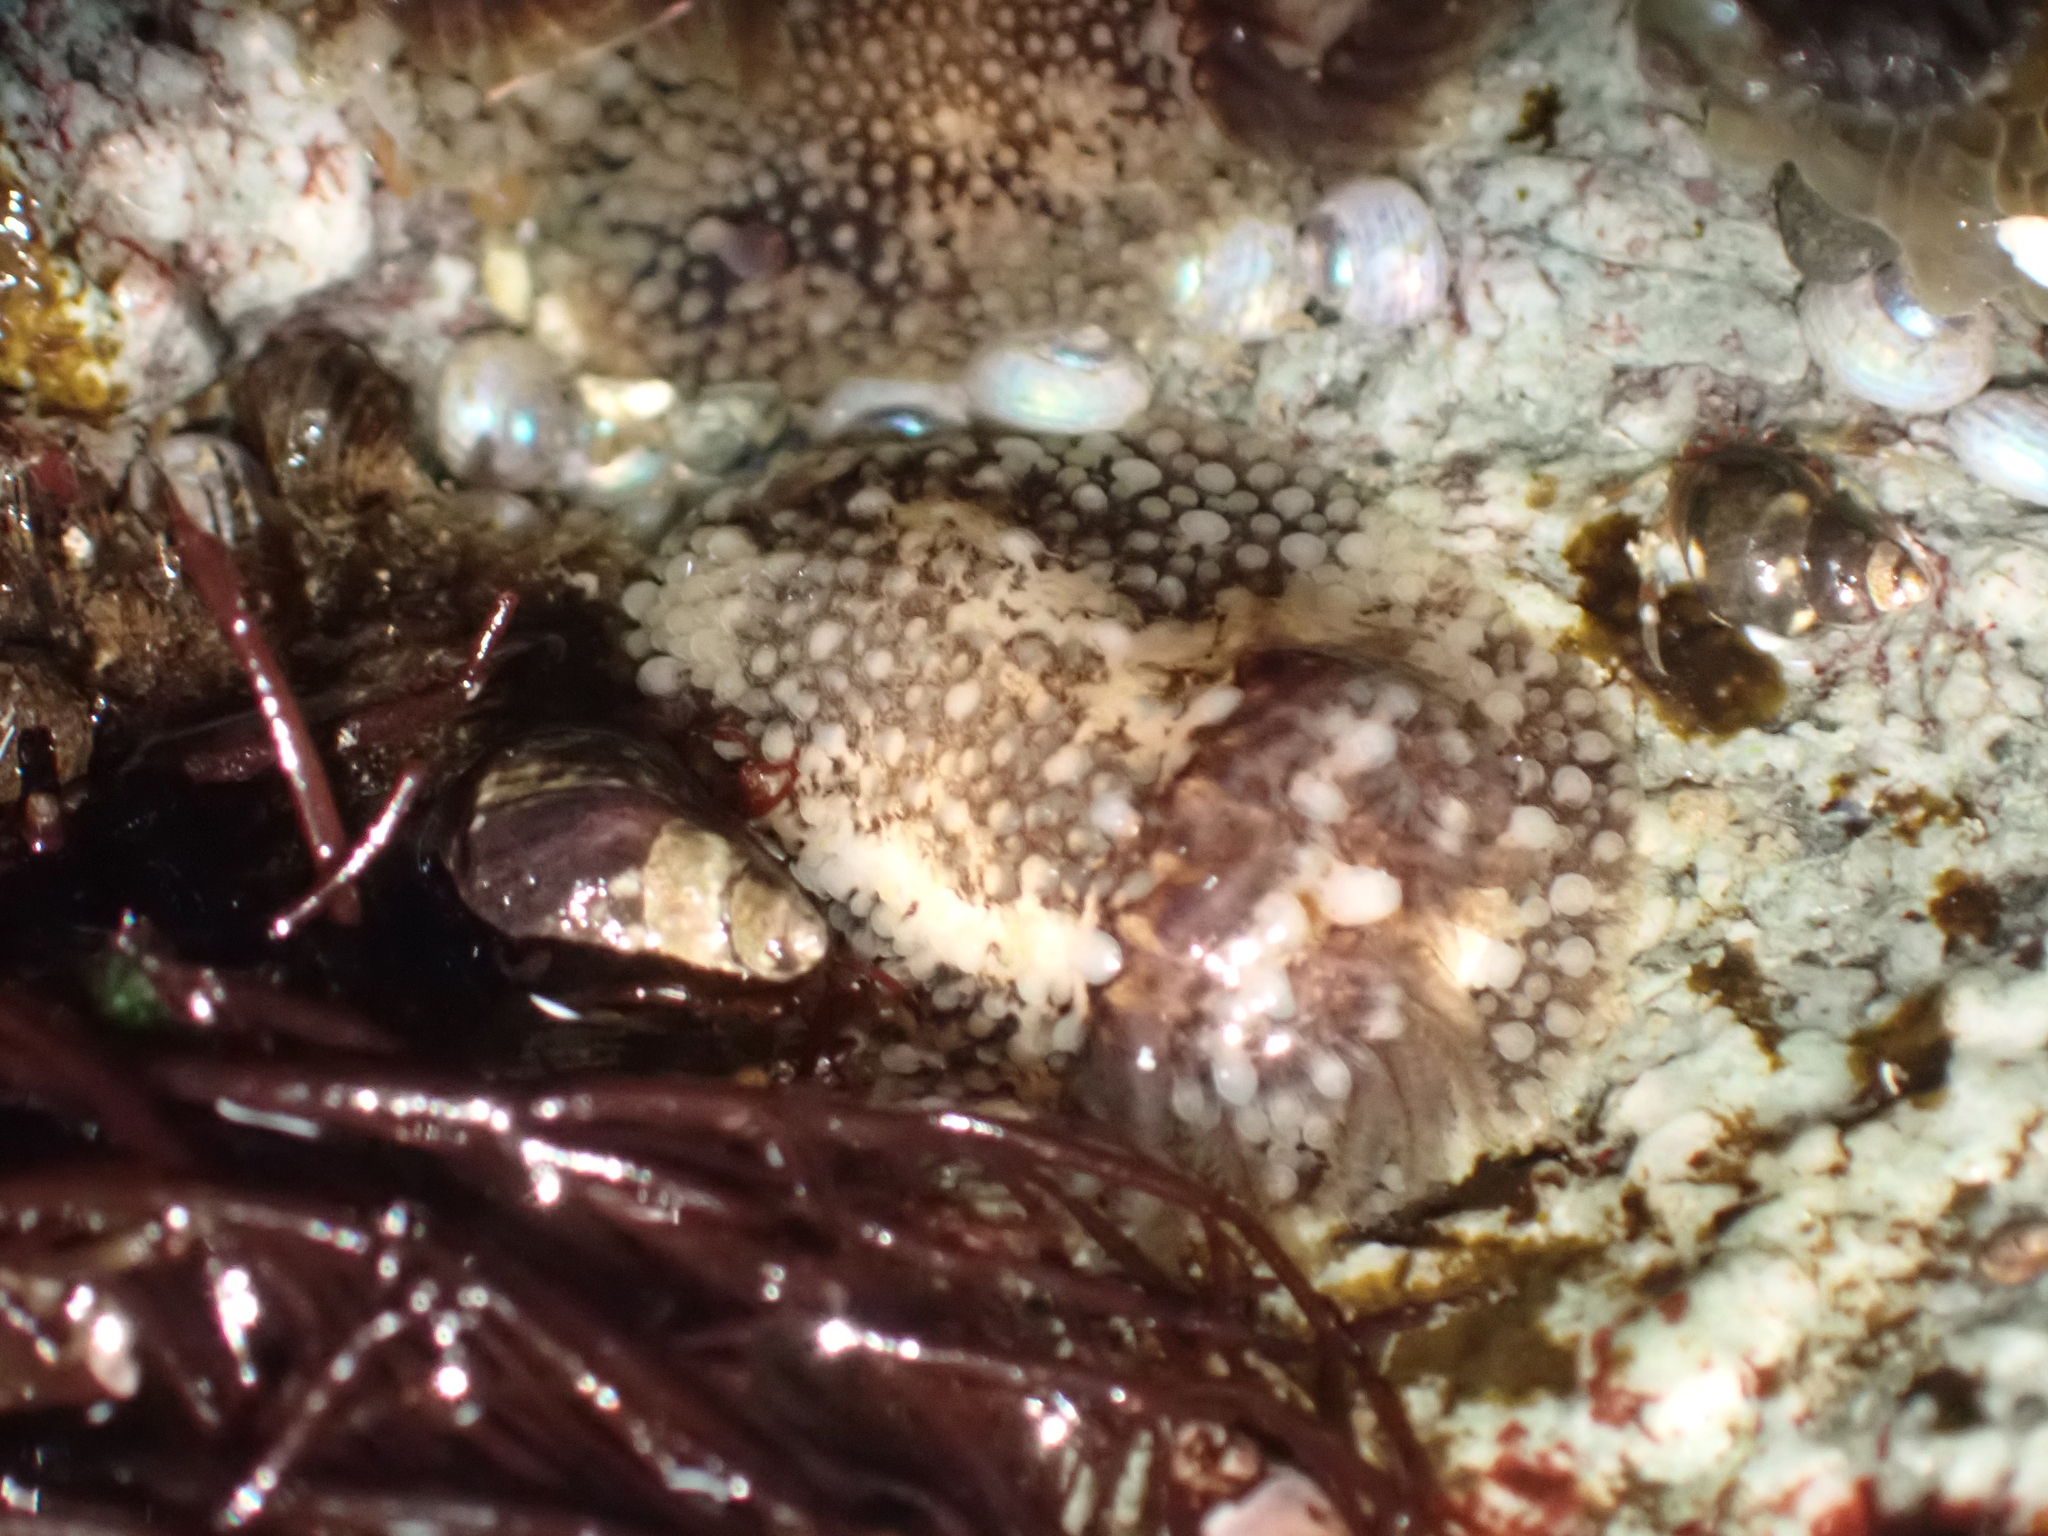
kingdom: Animalia
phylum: Mollusca
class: Gastropoda
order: Nudibranchia
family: Onchidorididae
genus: Onchidoris
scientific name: Onchidoris bilamellata
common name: Barnacle-eating onchidoris
